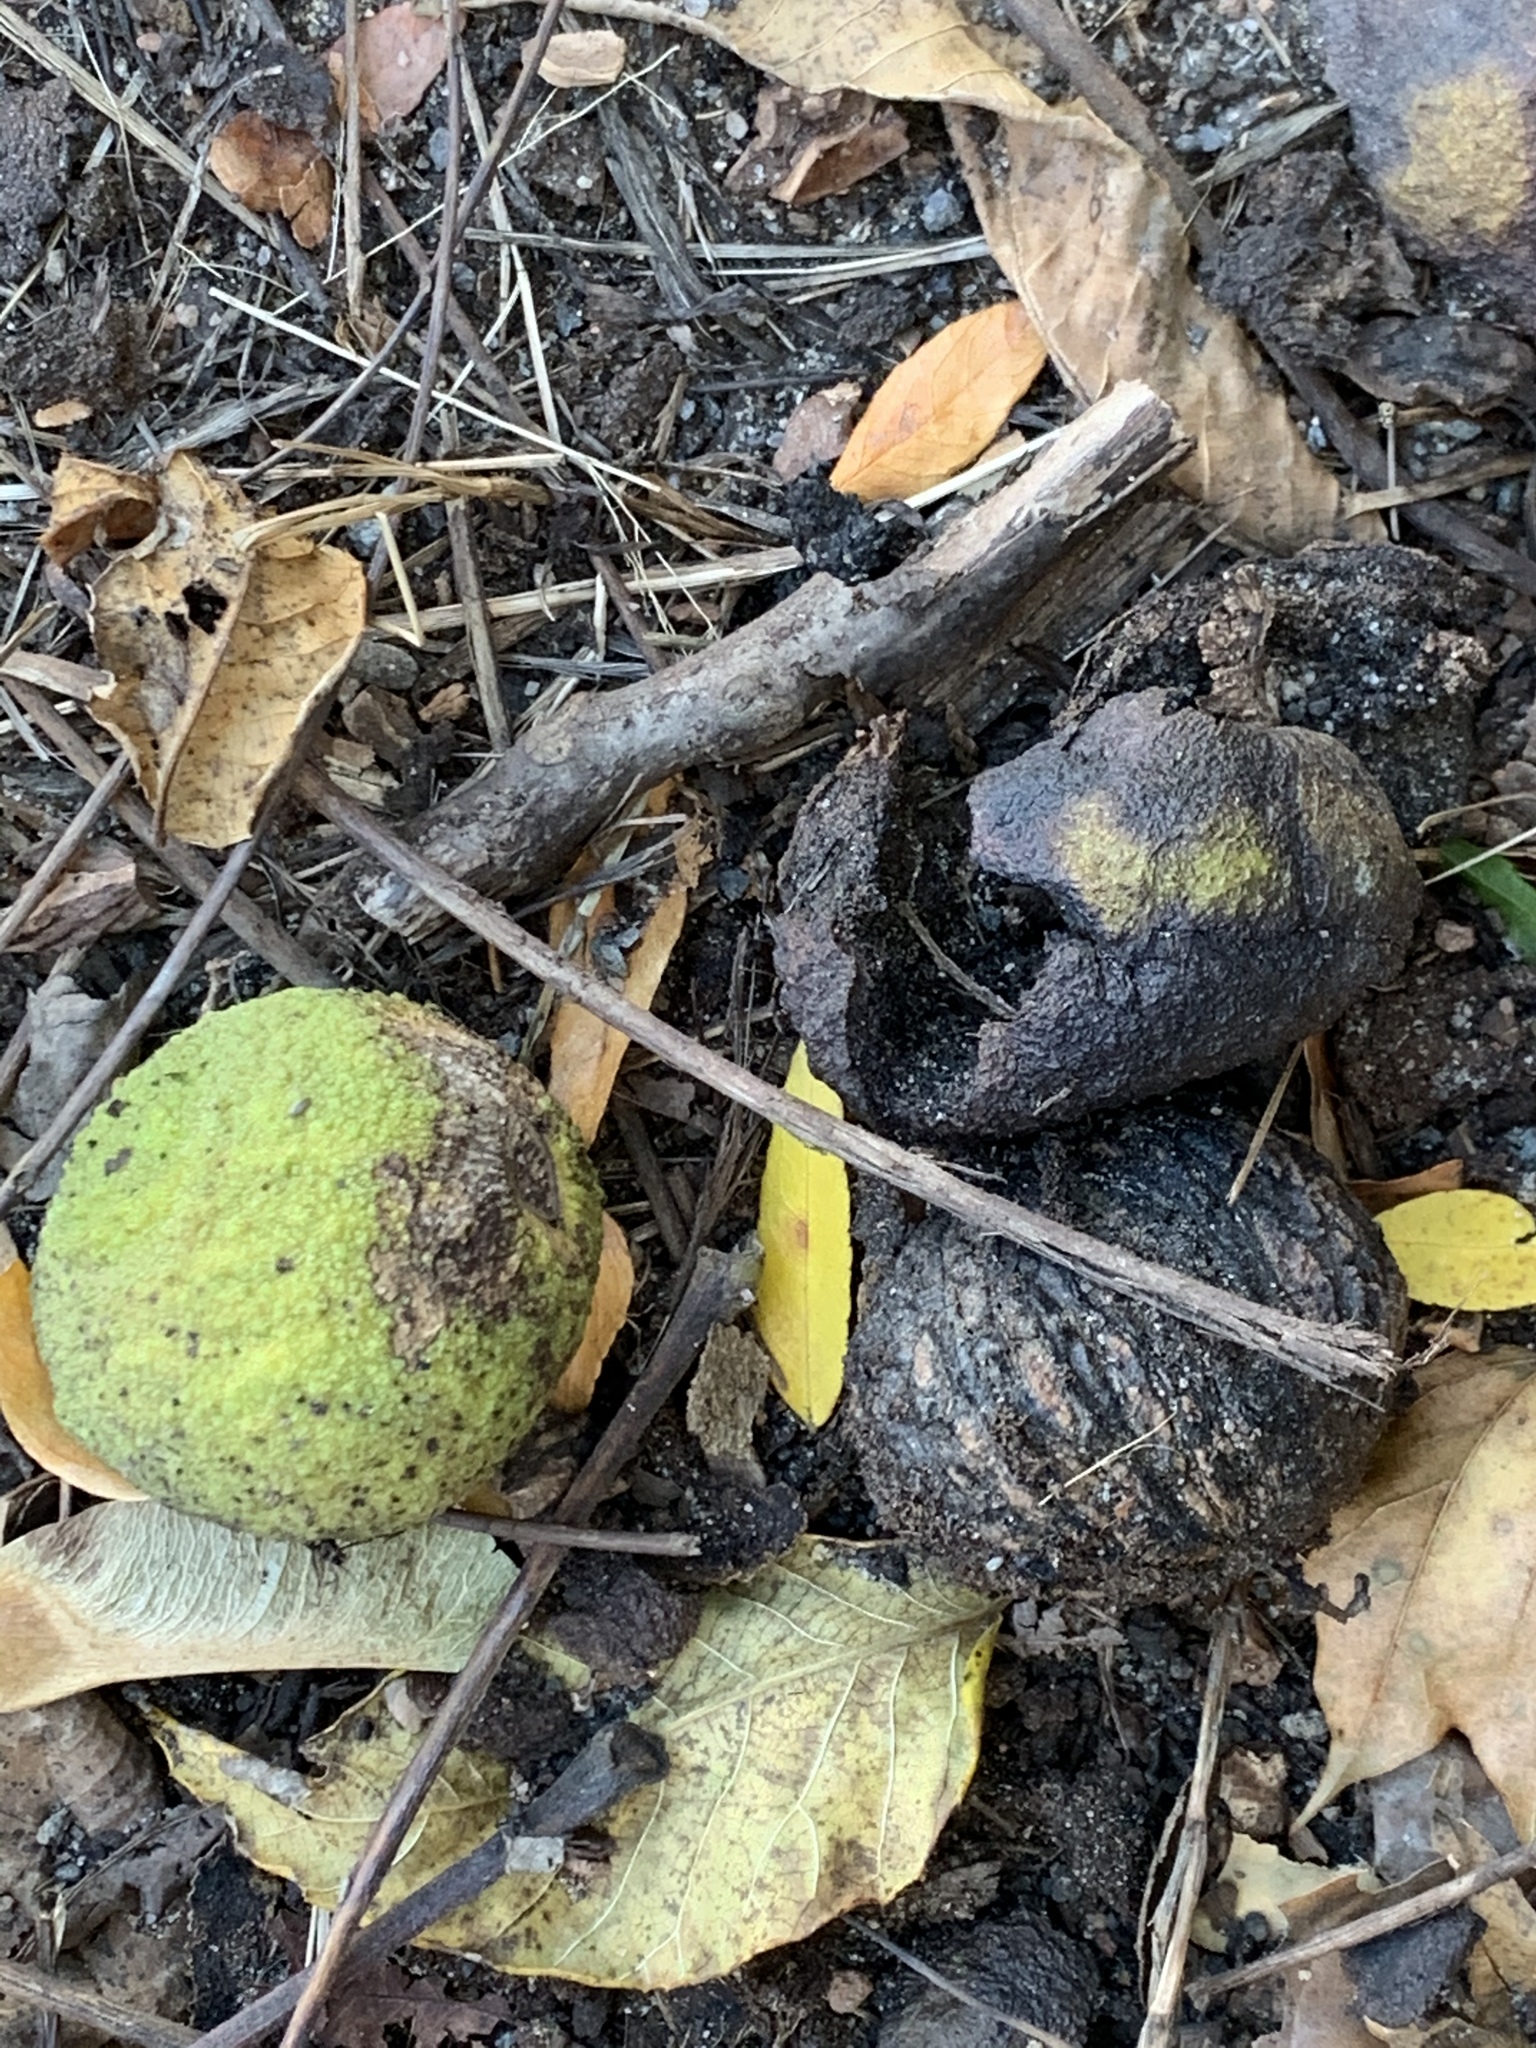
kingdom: Plantae
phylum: Tracheophyta
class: Magnoliopsida
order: Fagales
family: Juglandaceae
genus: Juglans
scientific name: Juglans nigra
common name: Black walnut
